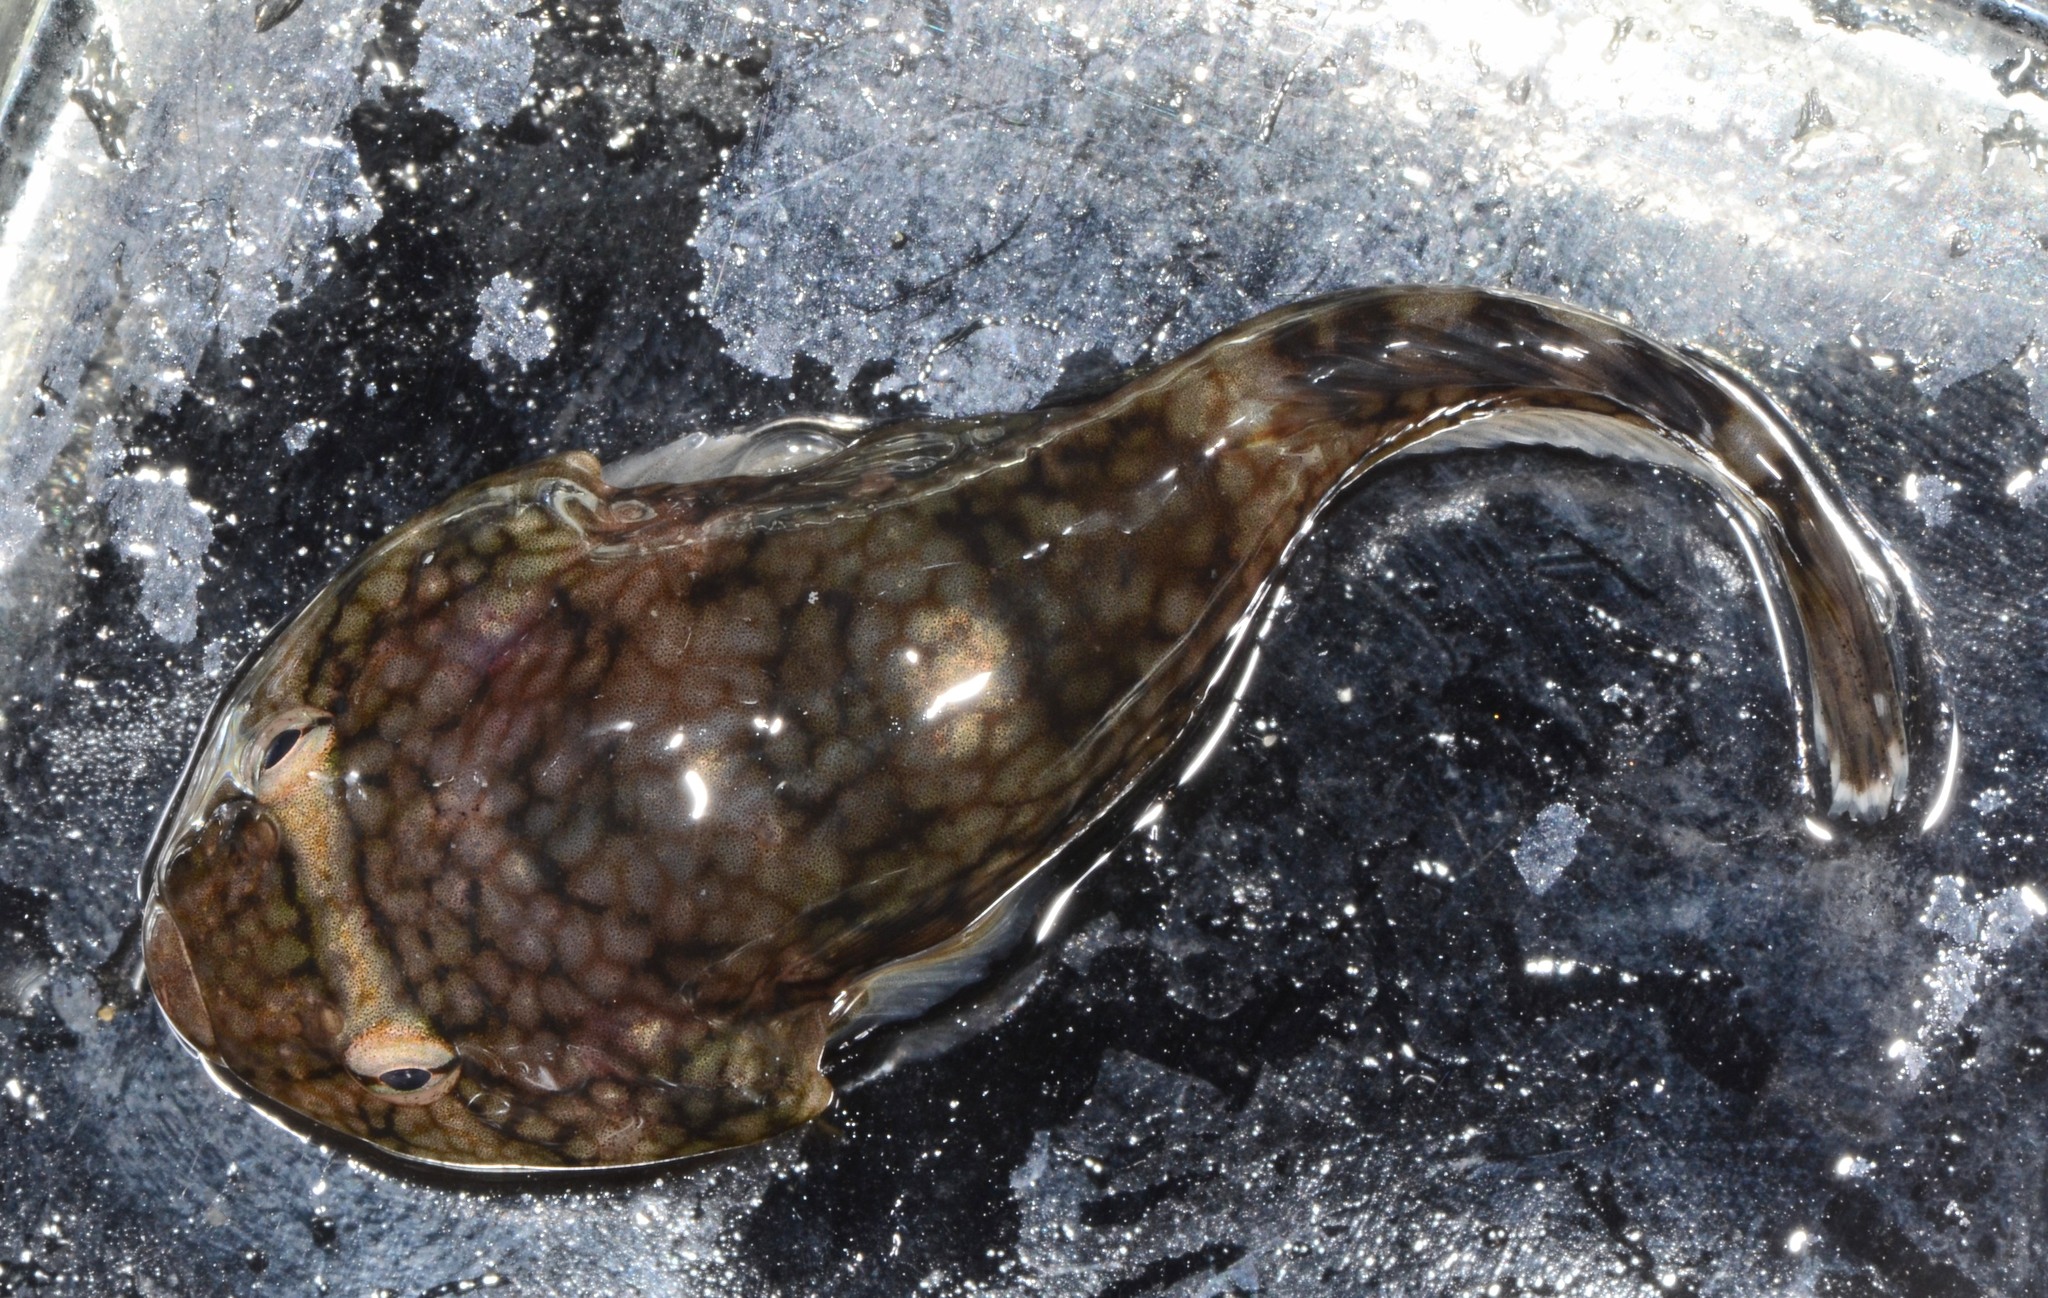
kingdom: Animalia
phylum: Chordata
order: Gobiesociformes
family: Gobiesocidae
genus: Gobiesox
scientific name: Gobiesox maeandricus
